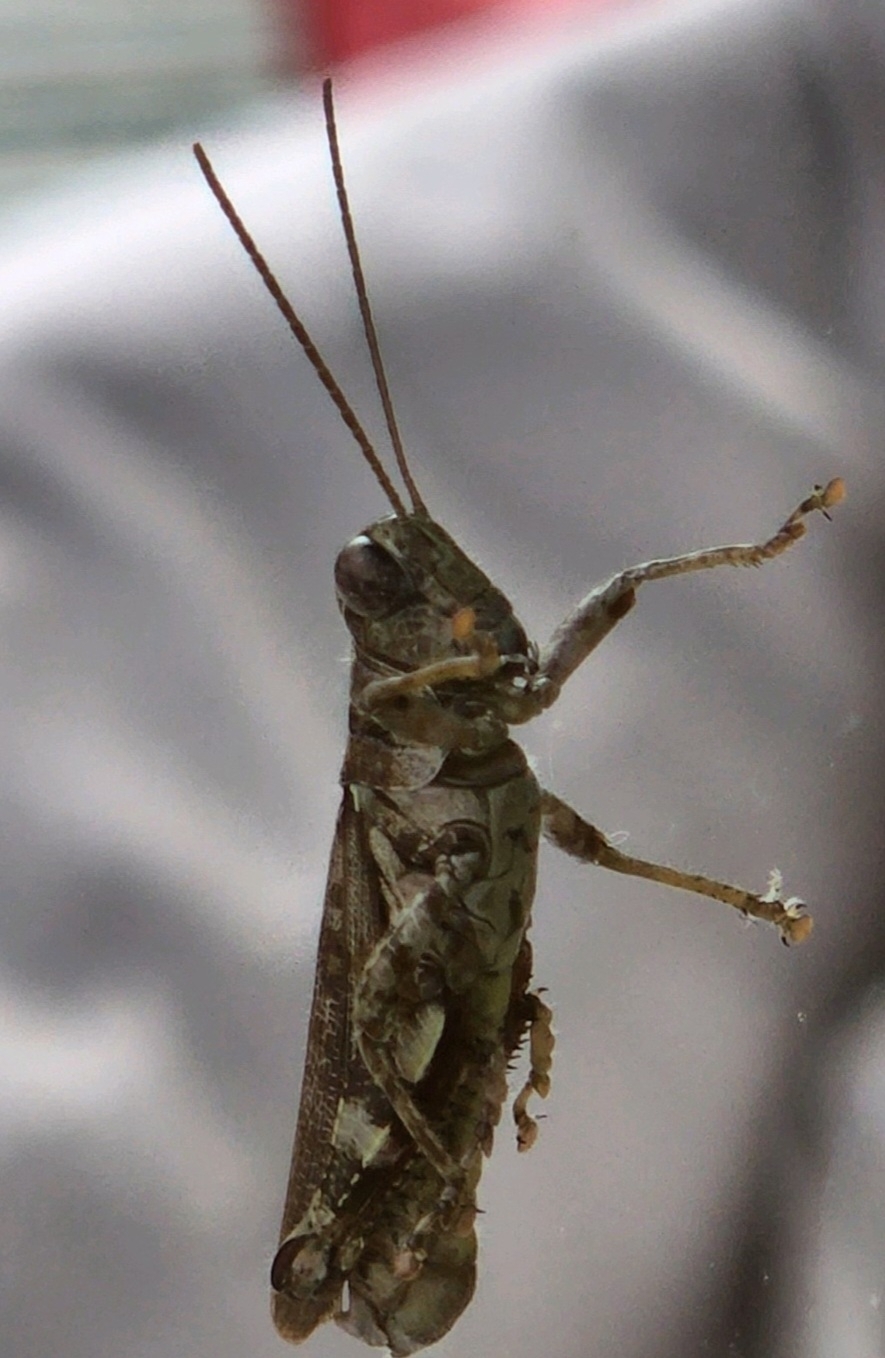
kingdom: Animalia
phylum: Arthropoda
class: Insecta
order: Orthoptera
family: Acrididae
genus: Melanoplus
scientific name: Melanoplus punctulatus
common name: Pine-tree spur-throat grasshopper
